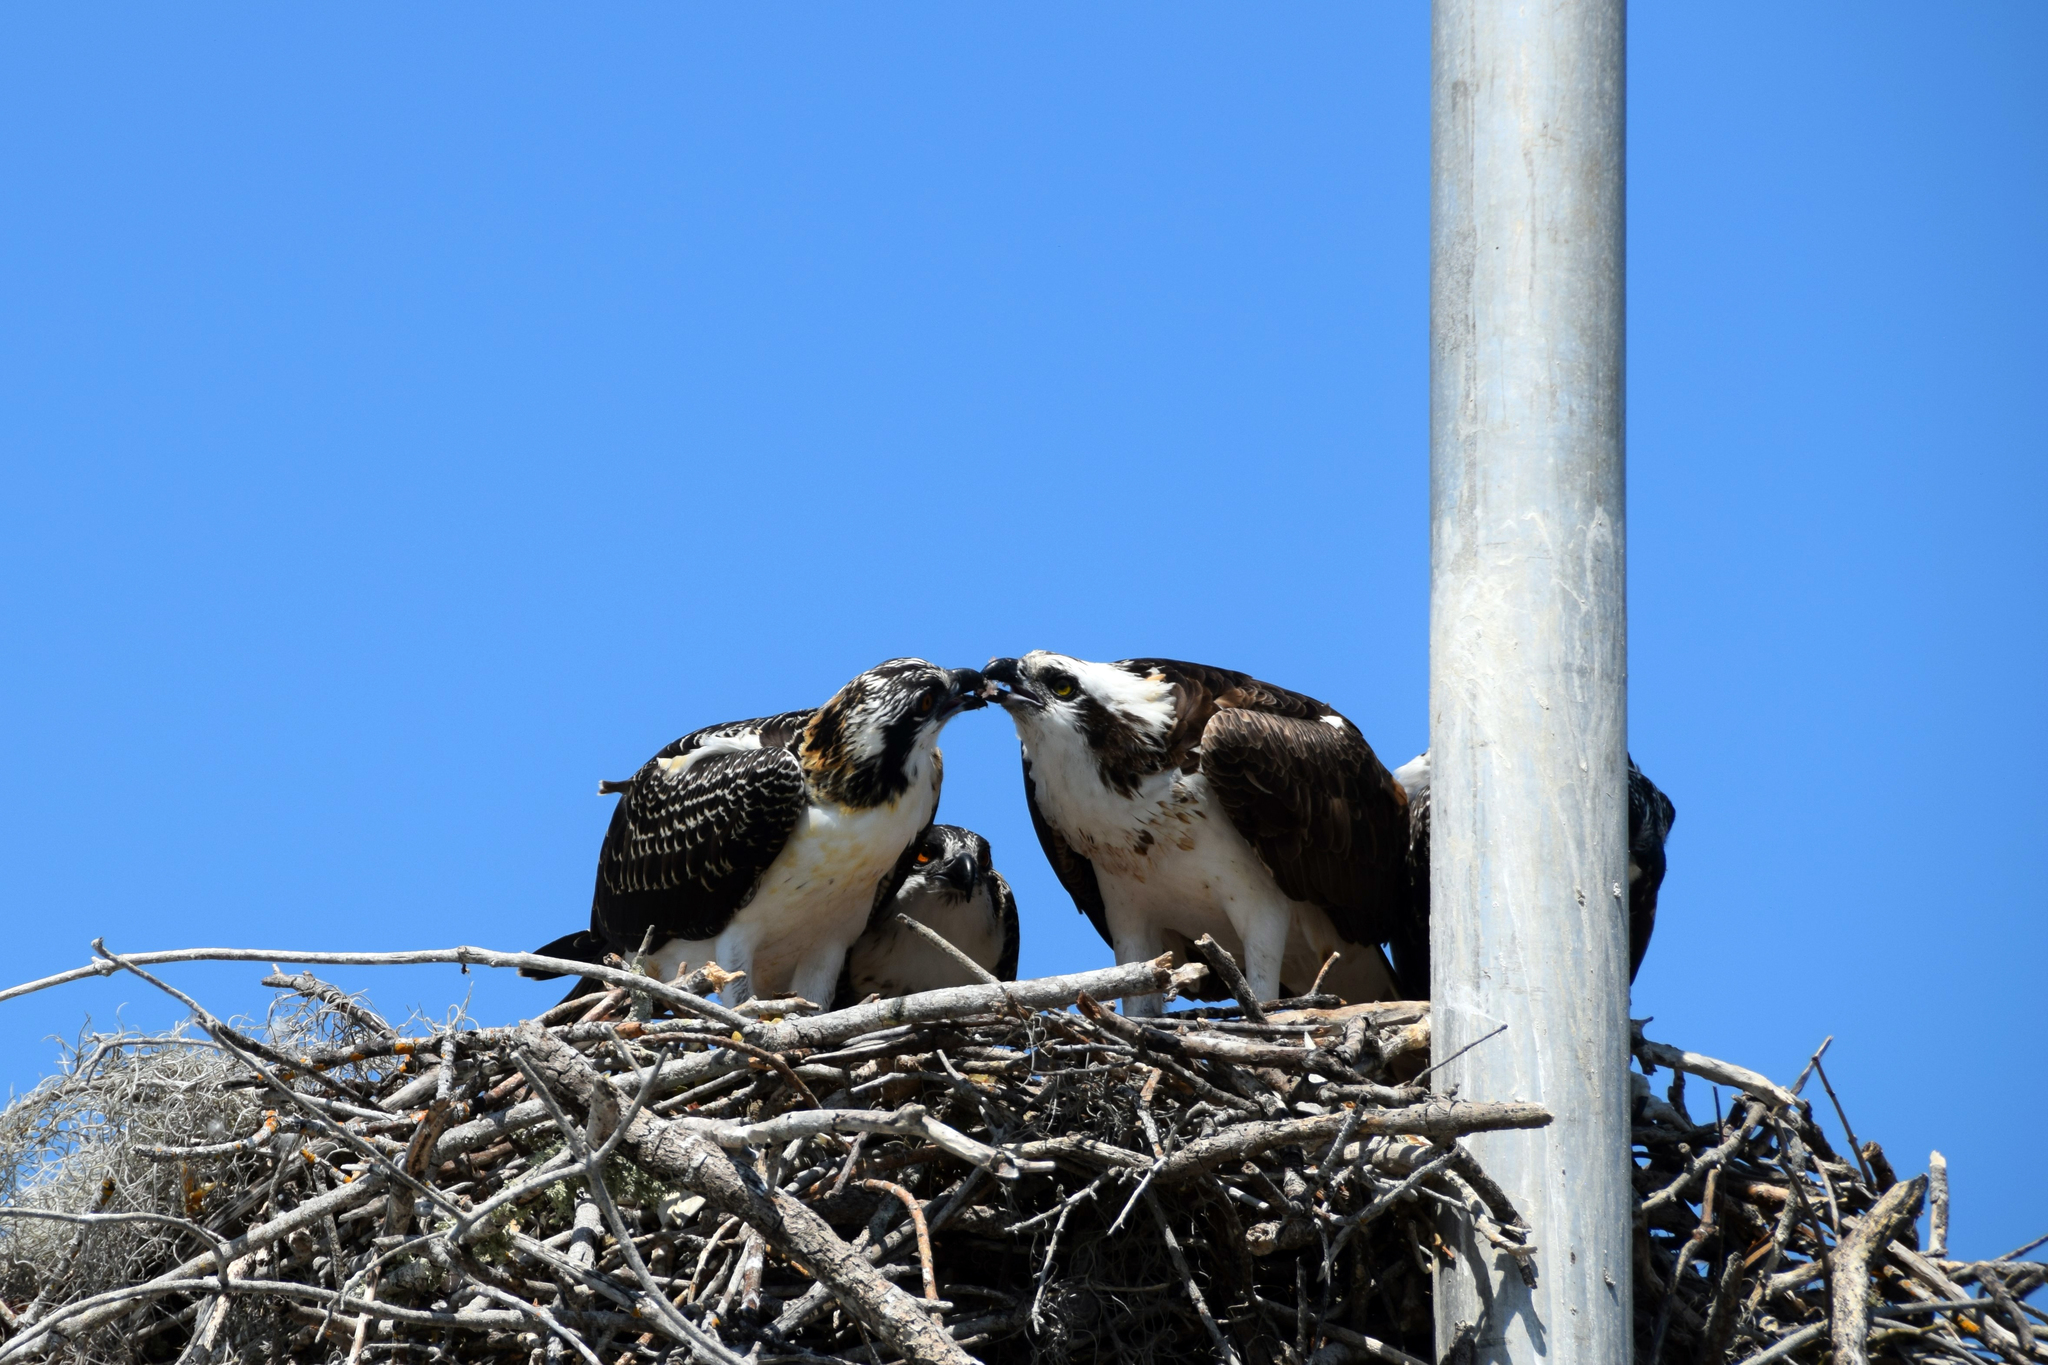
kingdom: Animalia
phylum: Chordata
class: Aves
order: Accipitriformes
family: Pandionidae
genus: Pandion
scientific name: Pandion haliaetus
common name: Osprey
